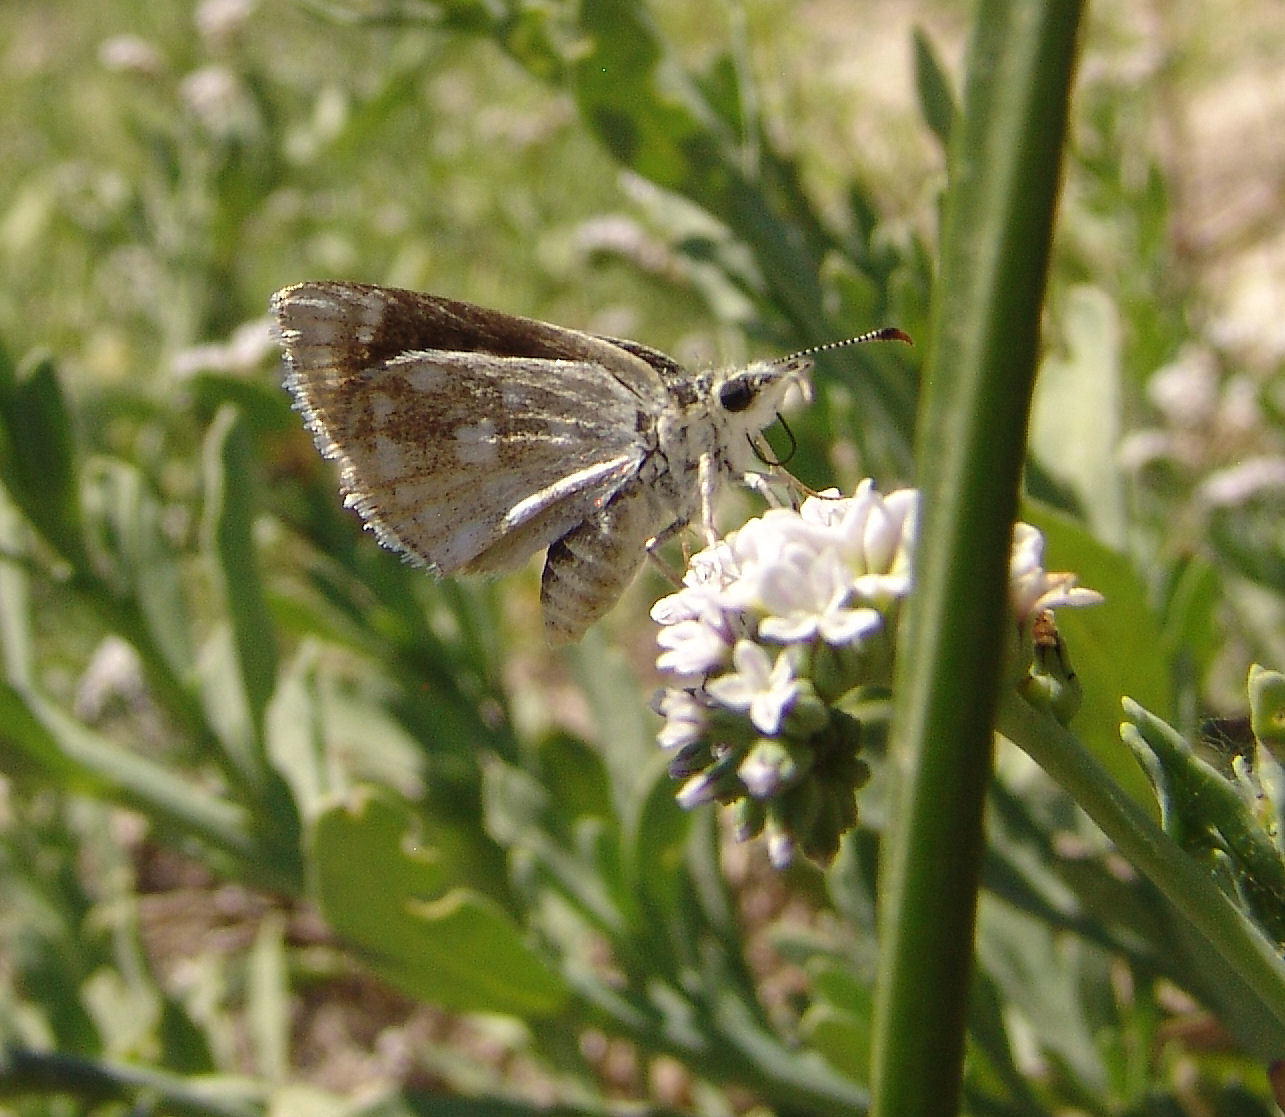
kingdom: Animalia
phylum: Arthropoda
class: Insecta
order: Lepidoptera
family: Hesperiidae
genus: Pholisora
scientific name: Pholisora libya
